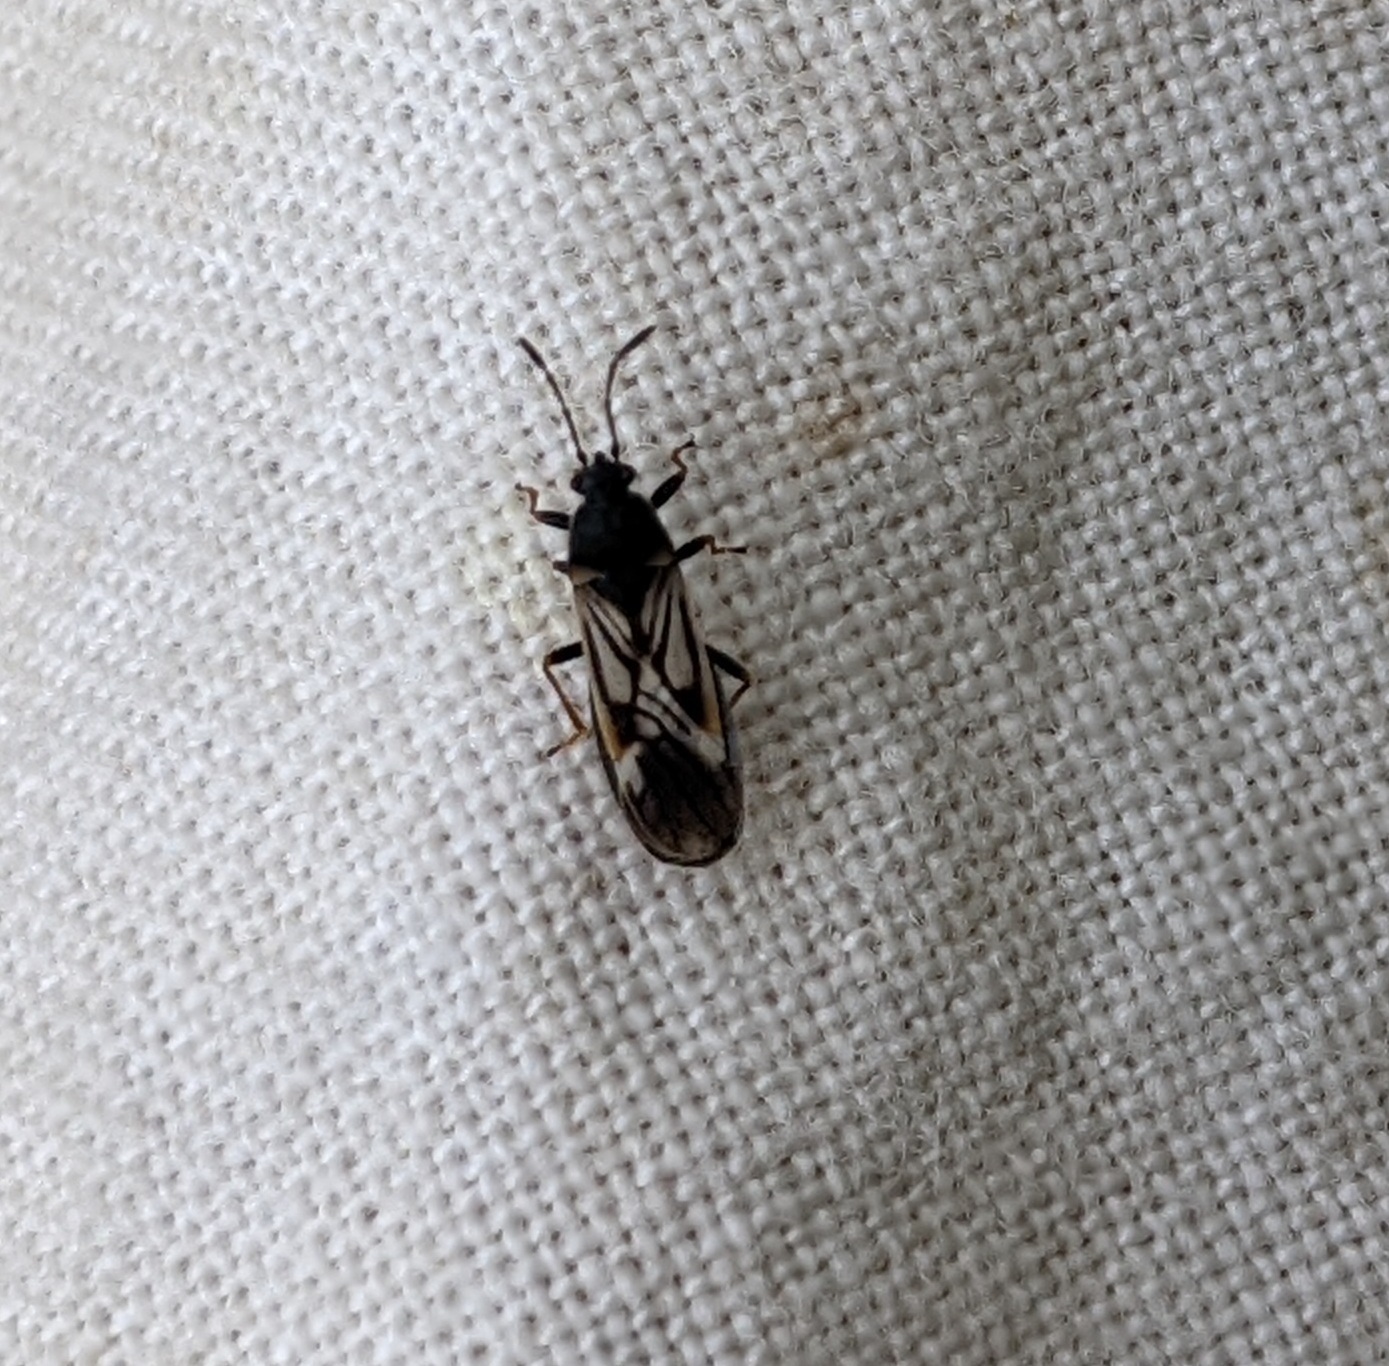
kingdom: Animalia
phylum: Arthropoda
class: Insecta
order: Hemiptera
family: Miridae
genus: Harpocera
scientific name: Harpocera thoracica
